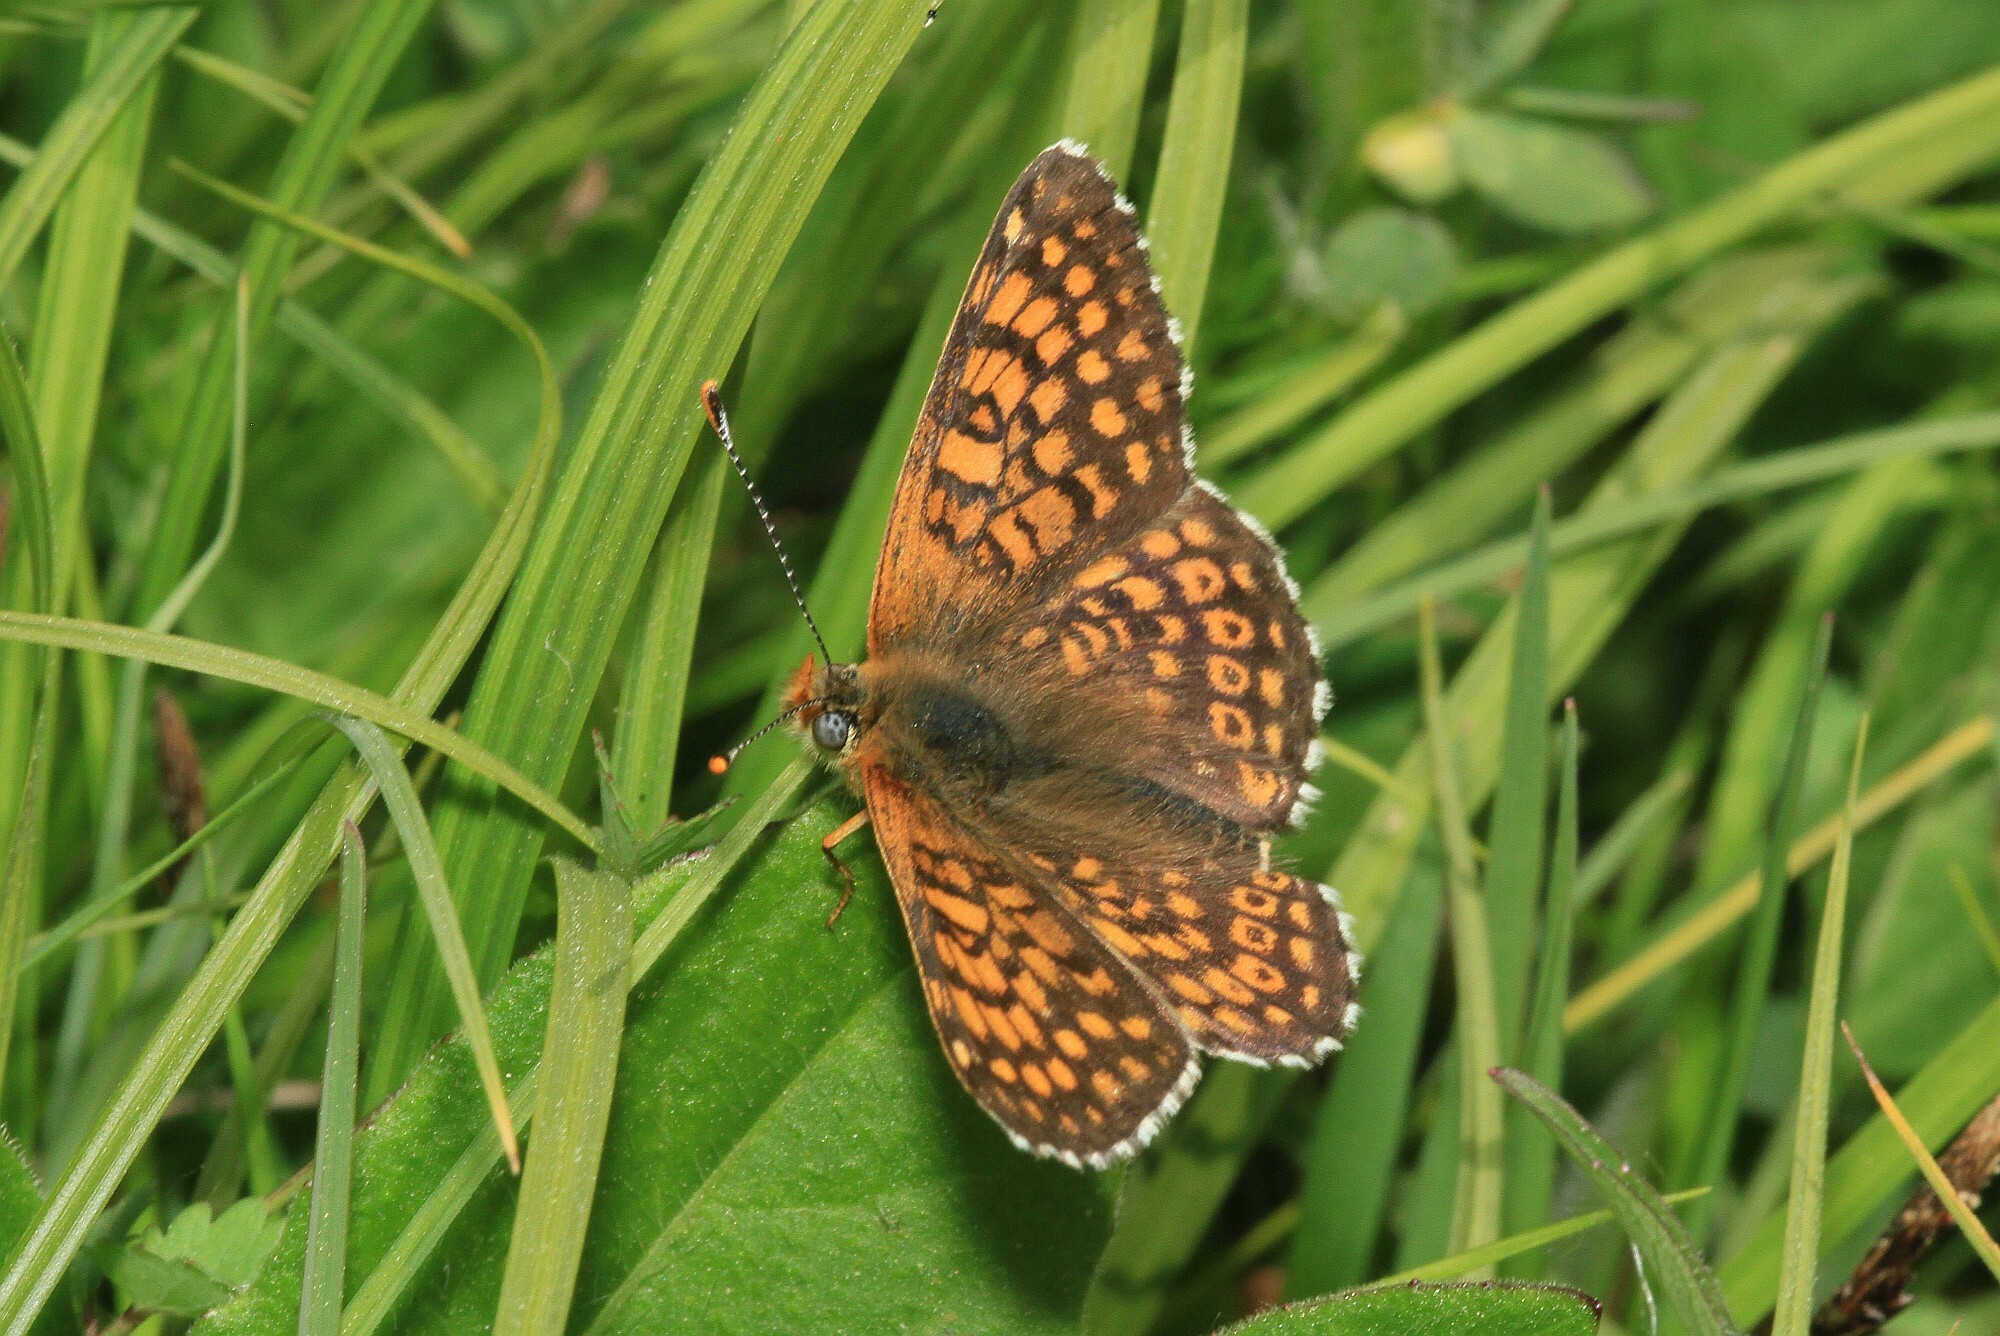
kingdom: Animalia
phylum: Arthropoda
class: Insecta
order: Lepidoptera
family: Nymphalidae
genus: Melitaea
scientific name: Melitaea cinxia
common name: Glanville fritillary
